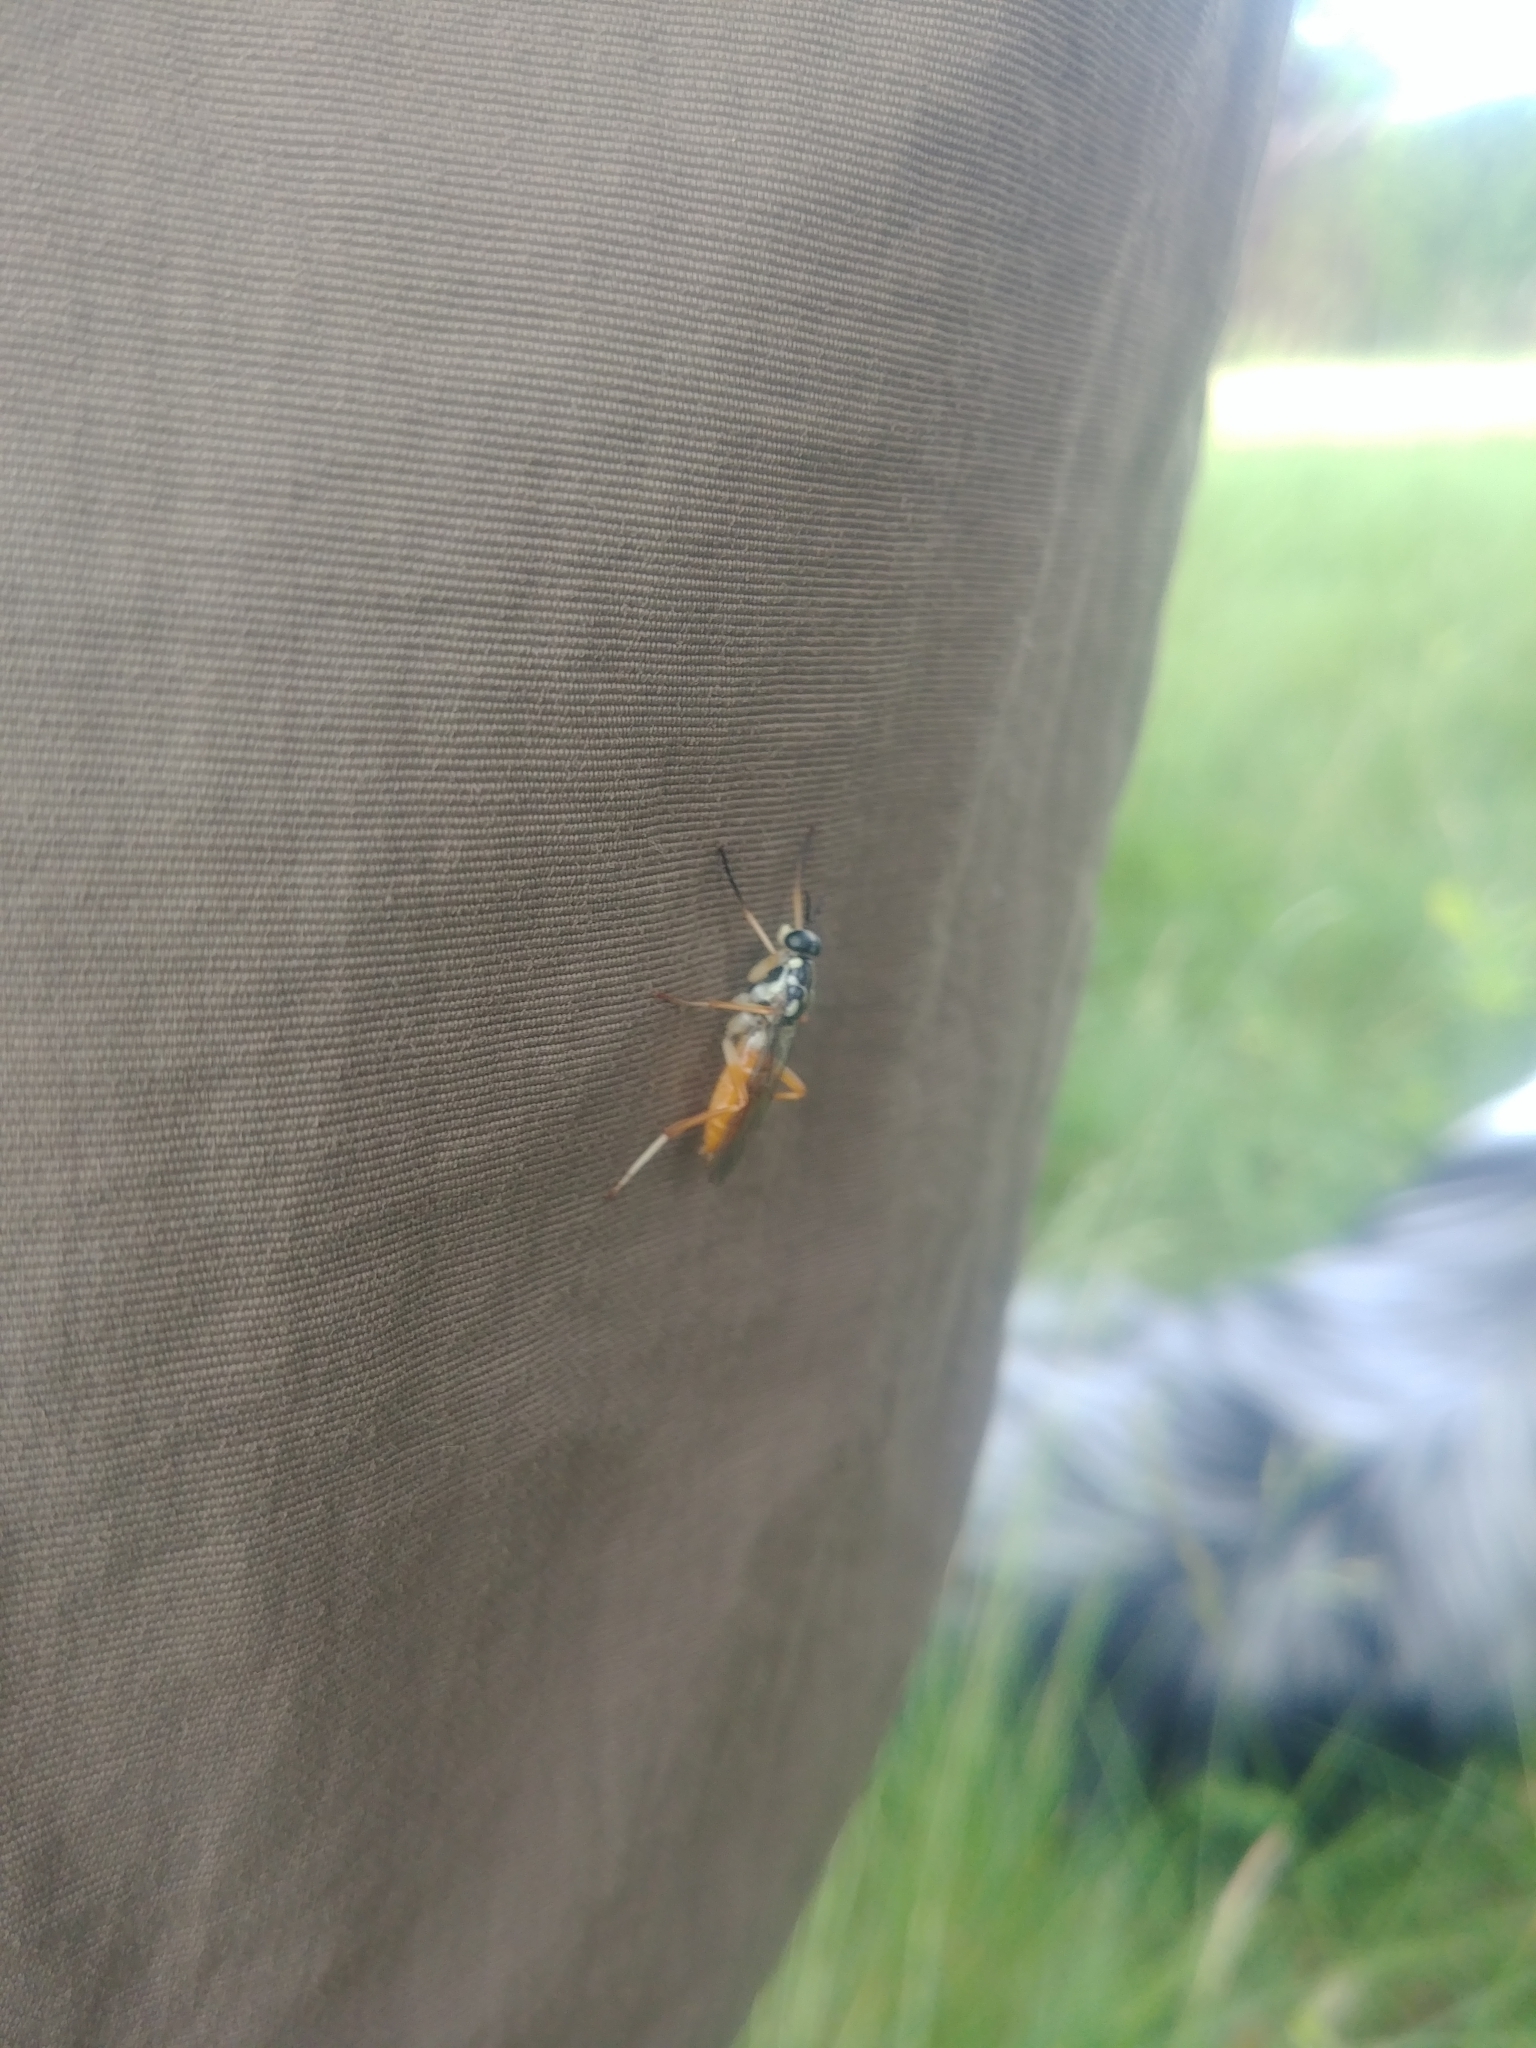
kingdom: Animalia
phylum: Arthropoda
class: Insecta
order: Diptera
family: Xylomyidae
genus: Xylomya
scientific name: Xylomya americana
